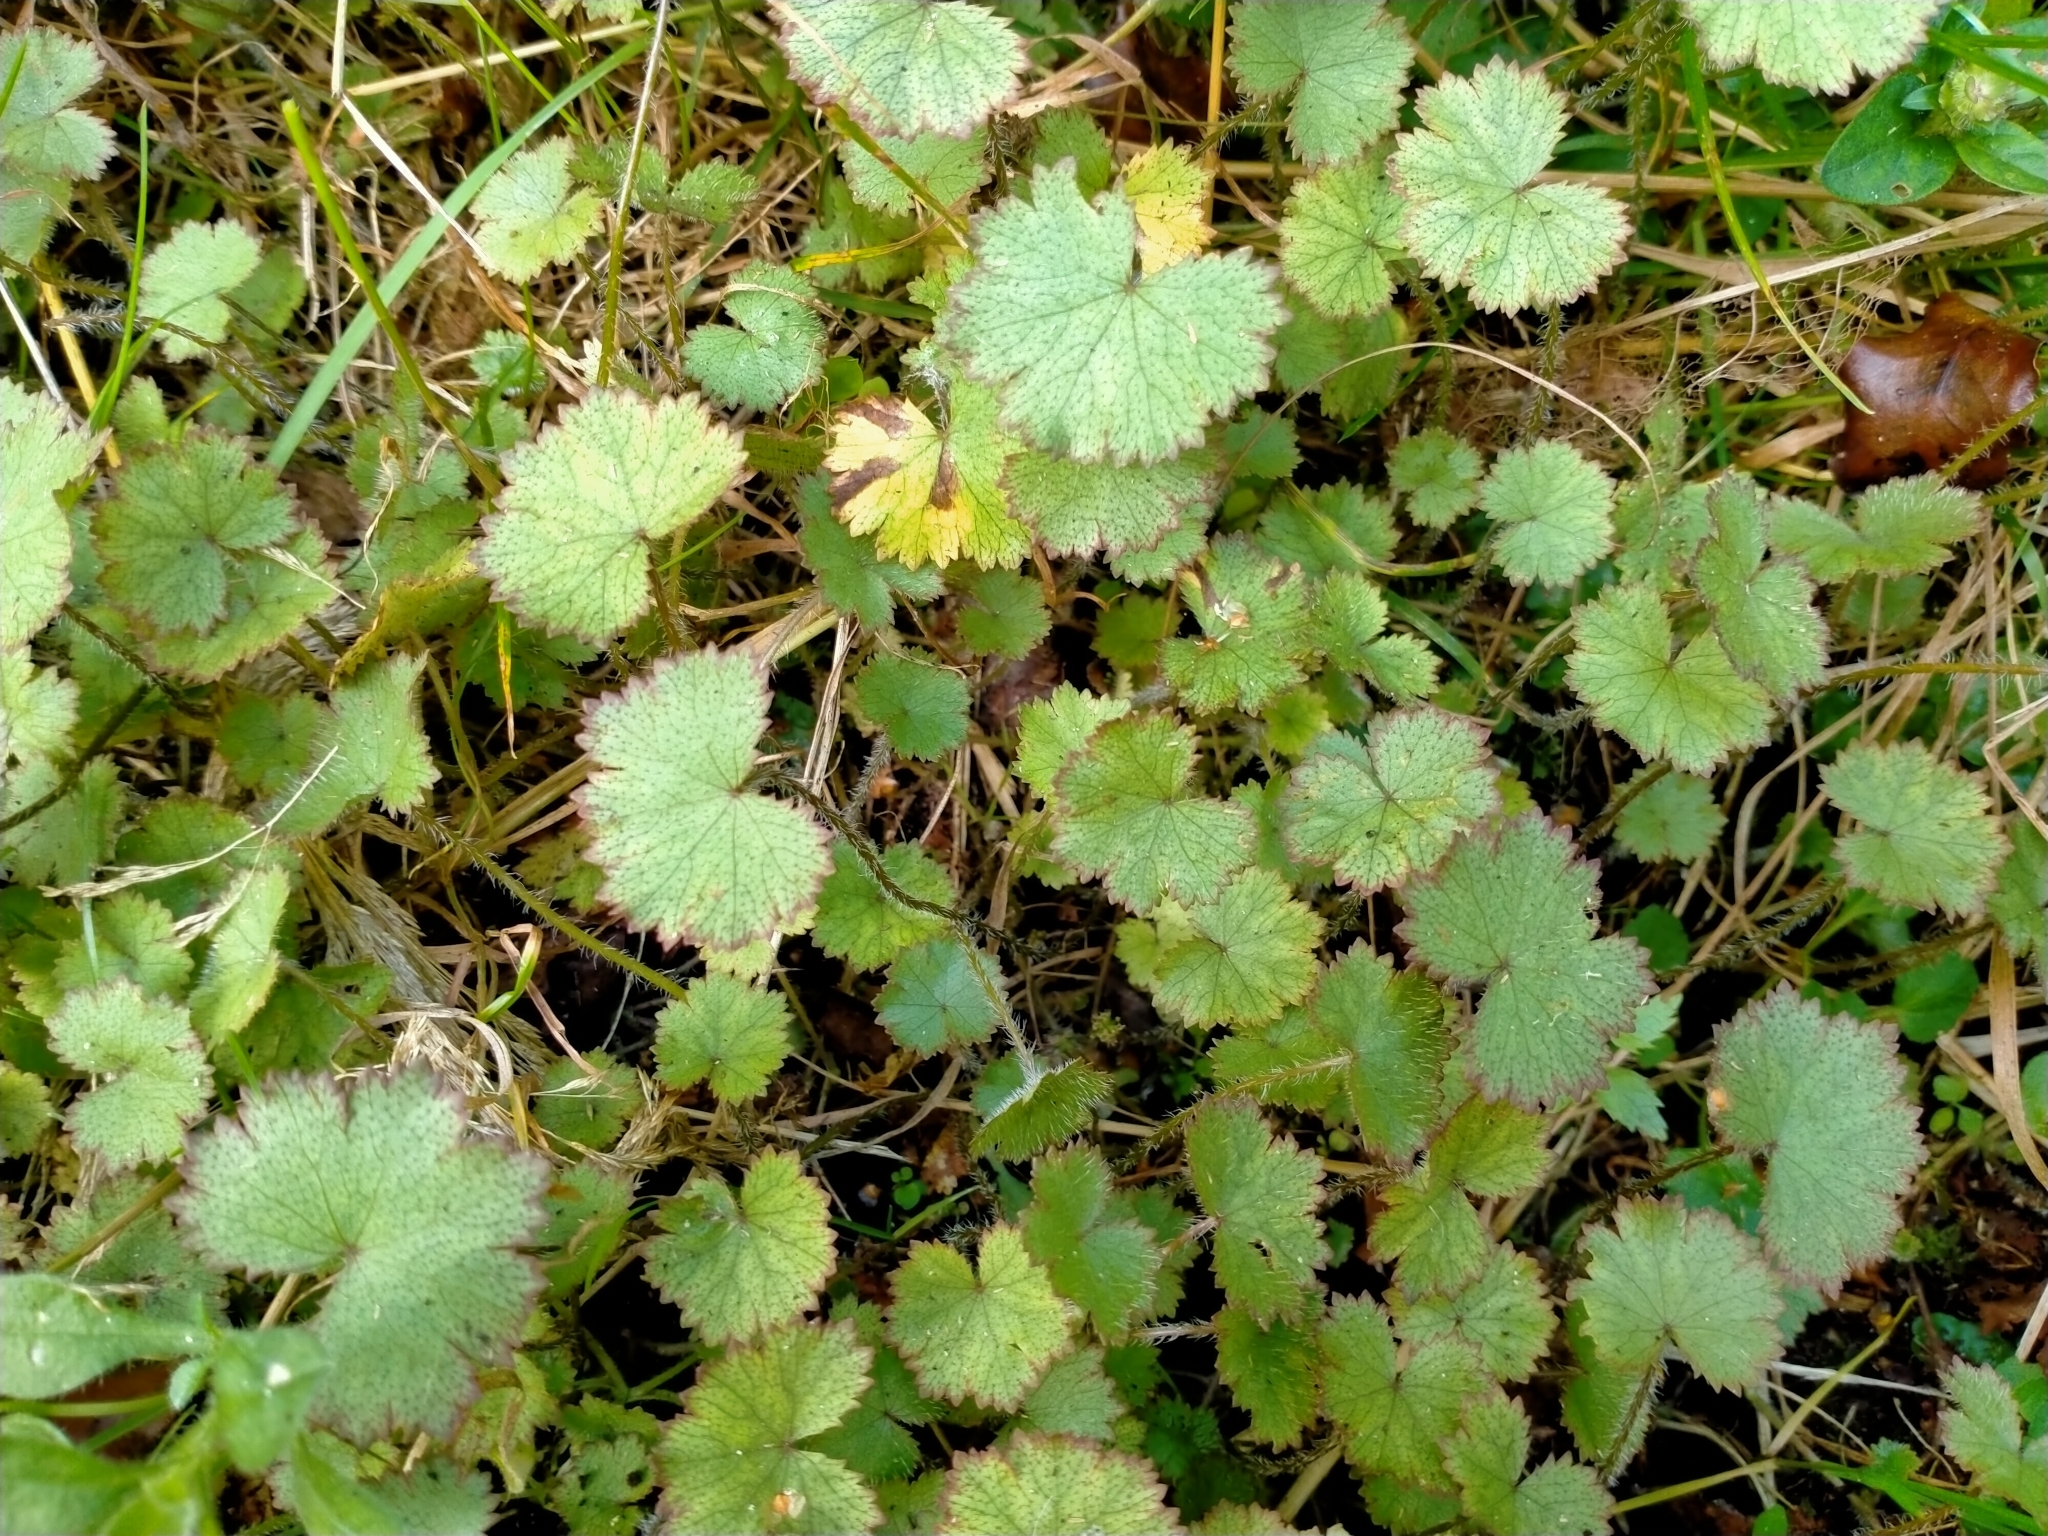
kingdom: Plantae
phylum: Tracheophyta
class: Magnoliopsida
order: Apiales
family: Araliaceae
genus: Hydrocotyle
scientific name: Hydrocotyle moschata
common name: Hairy pennywort
